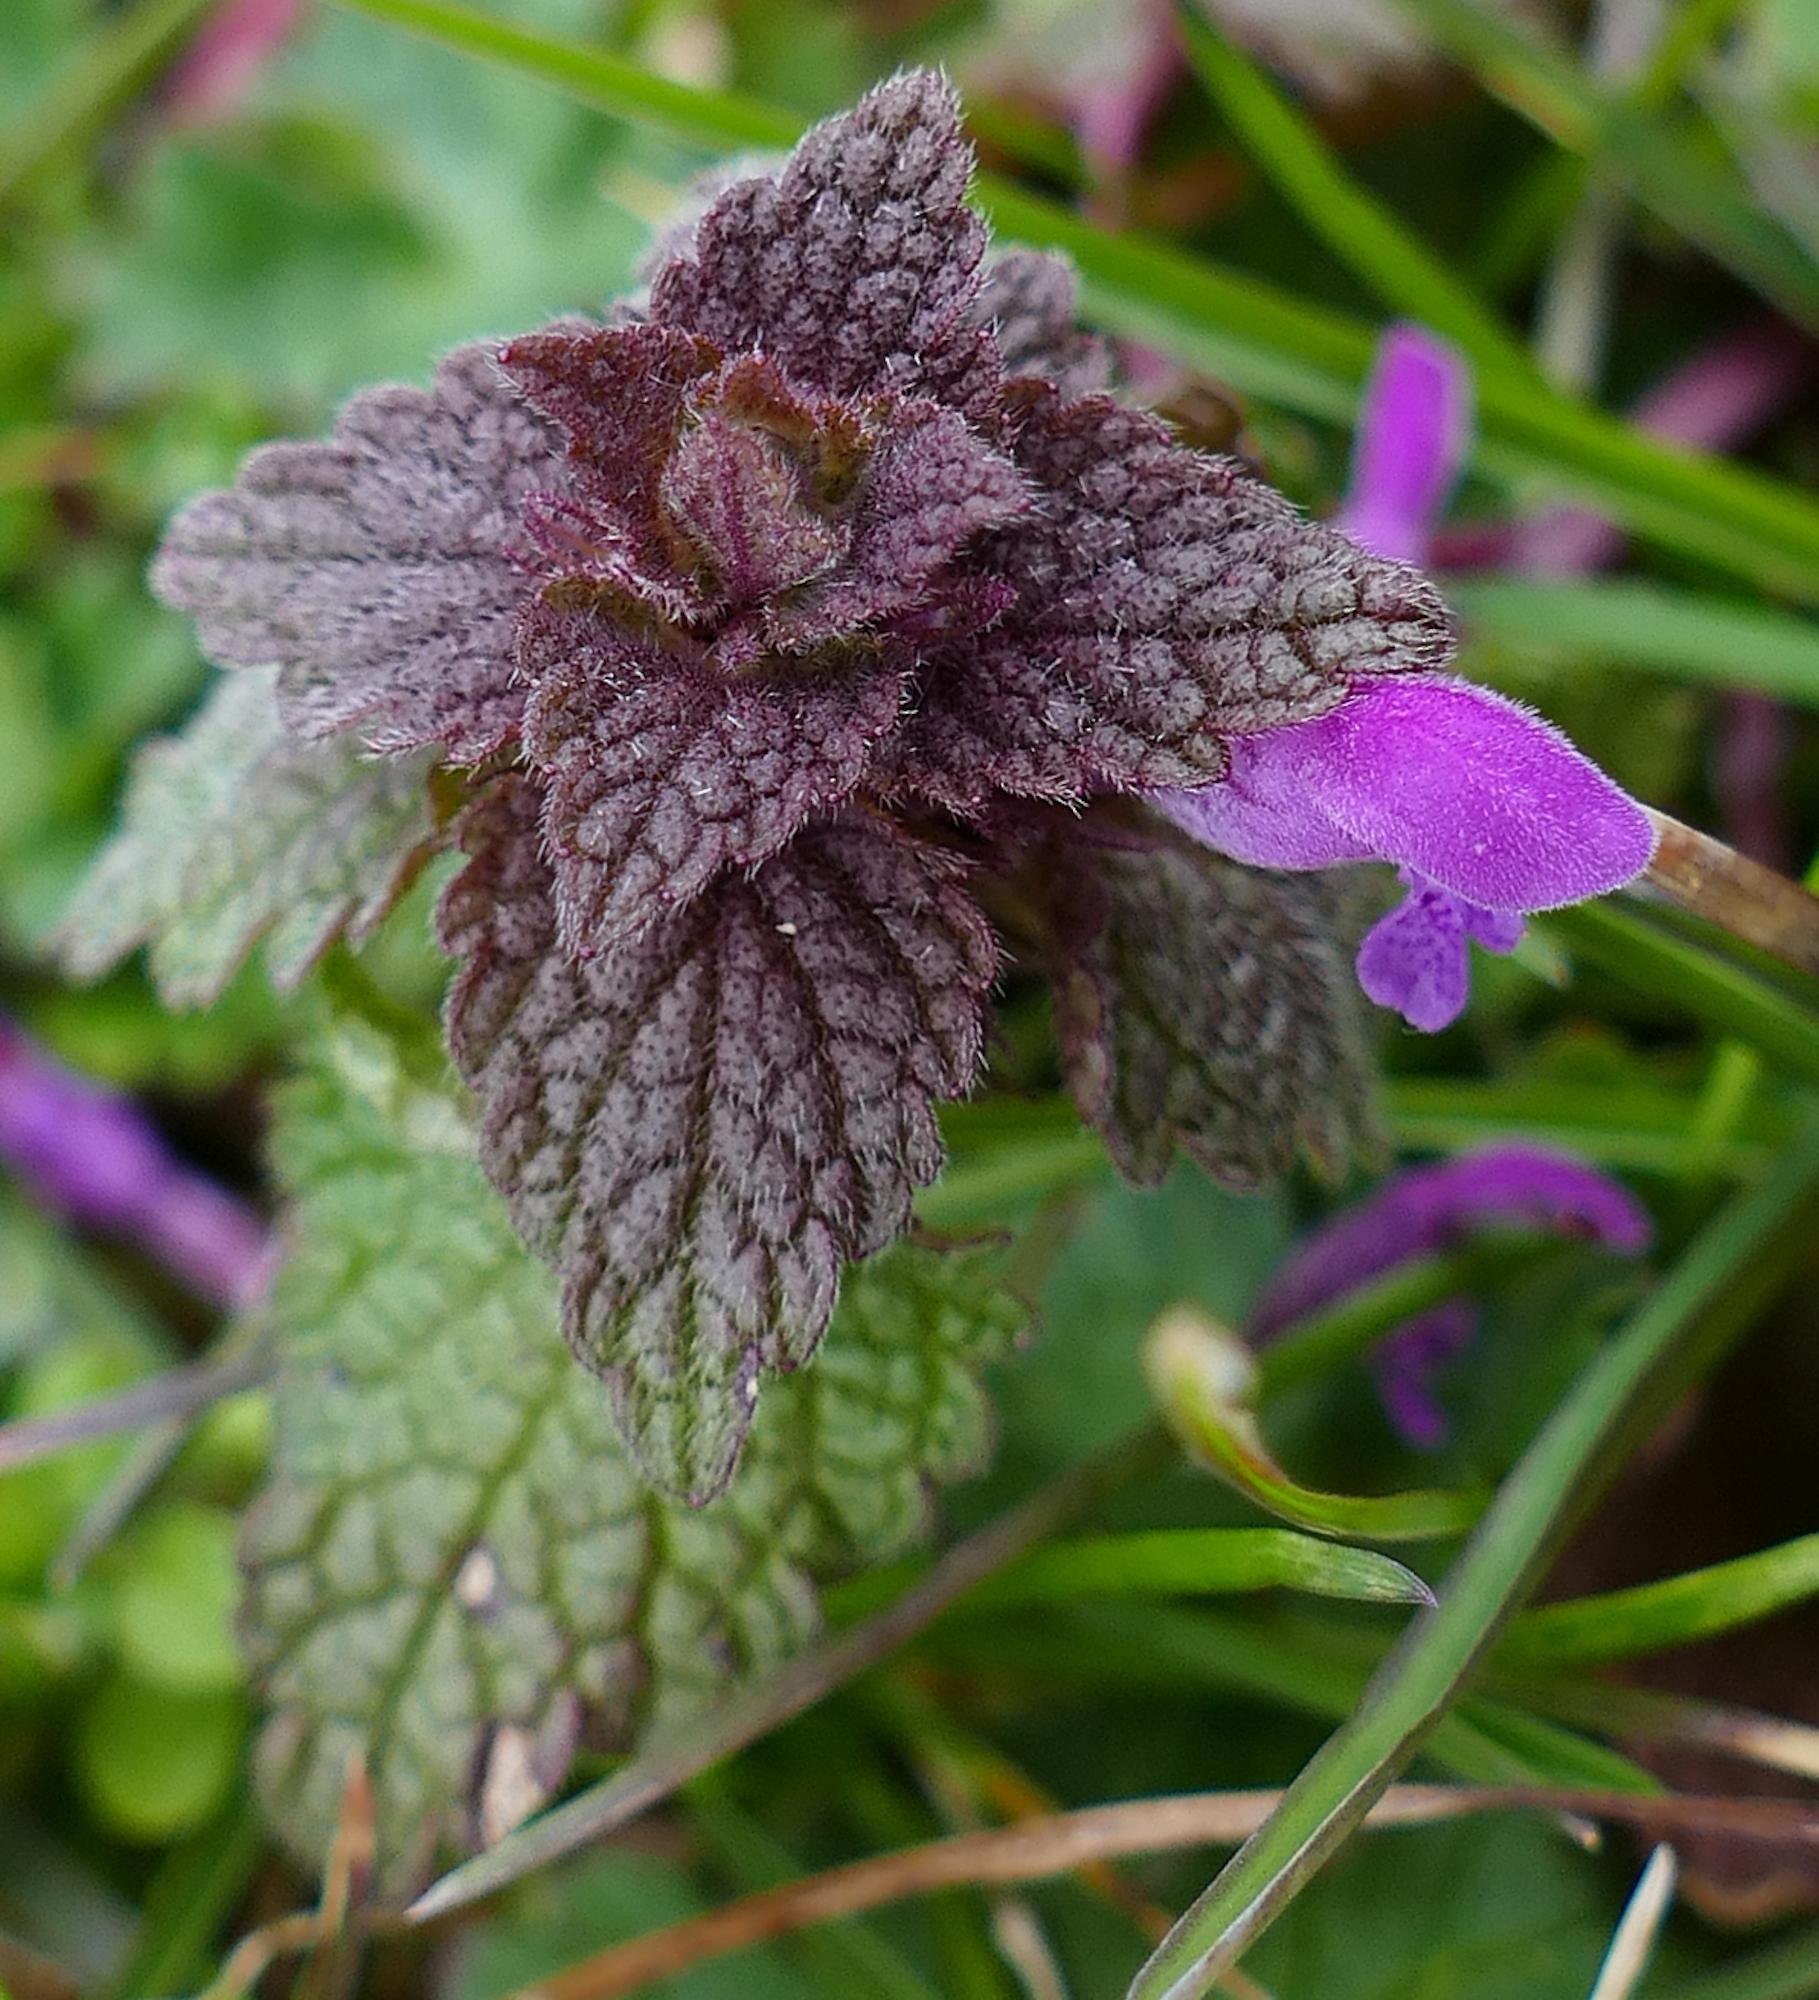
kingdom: Plantae
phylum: Tracheophyta
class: Magnoliopsida
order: Lamiales
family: Lamiaceae
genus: Lamium
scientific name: Lamium purpureum
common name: Red dead-nettle
